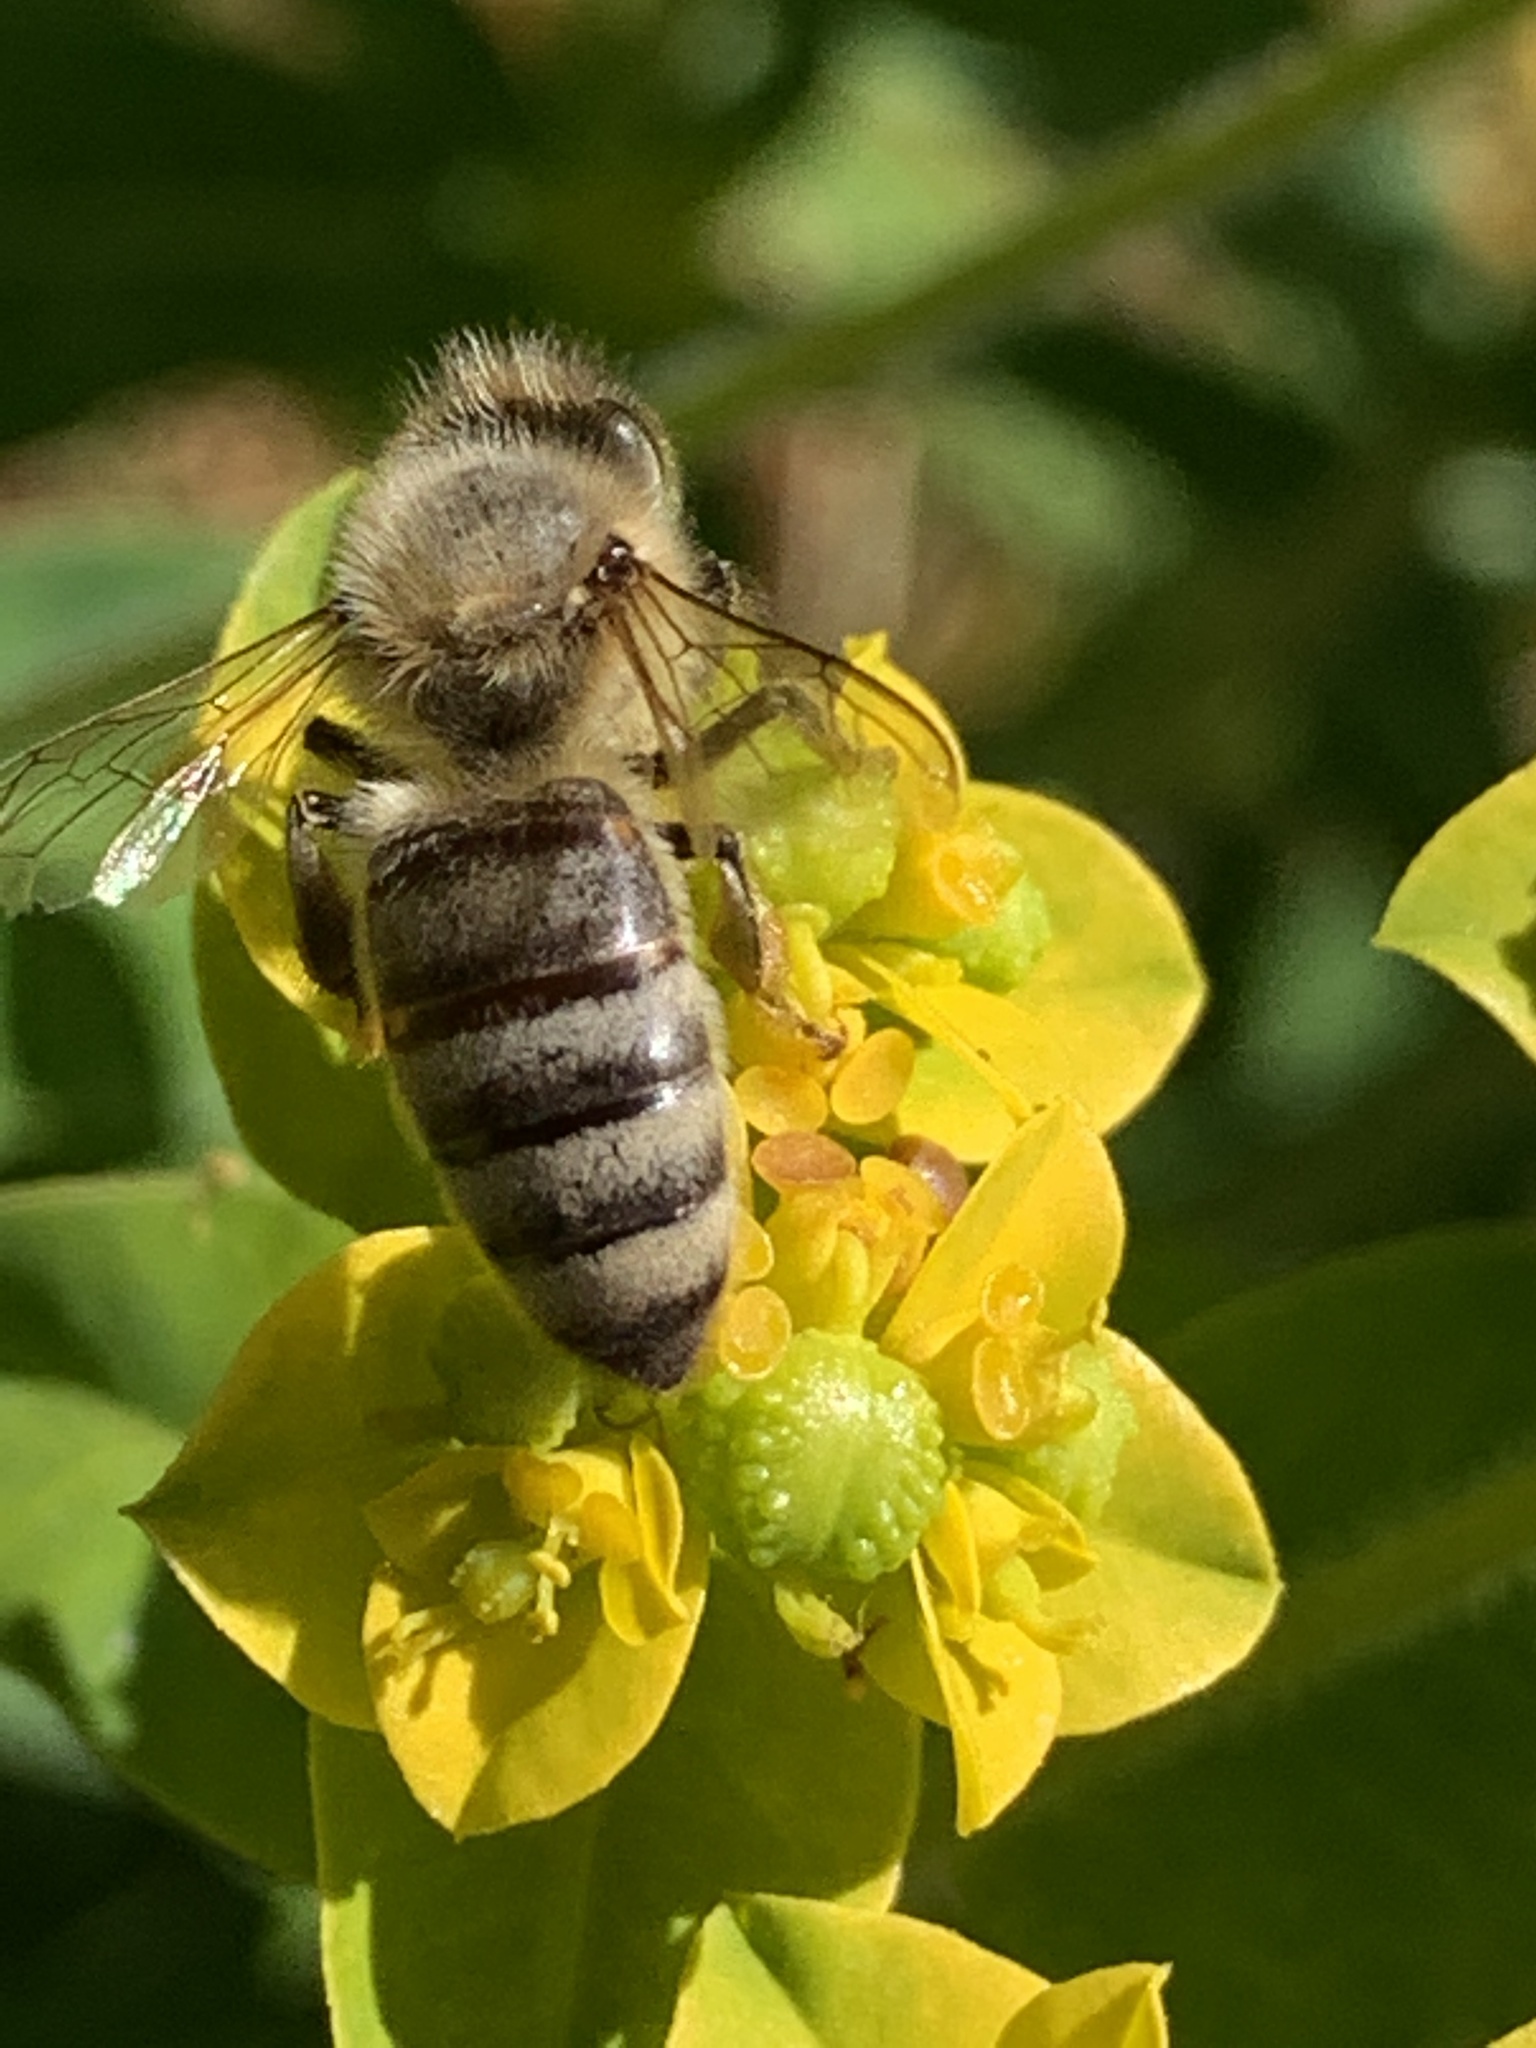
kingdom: Animalia
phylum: Arthropoda
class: Insecta
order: Hymenoptera
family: Apidae
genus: Apis
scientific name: Apis mellifera
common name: Honey bee
